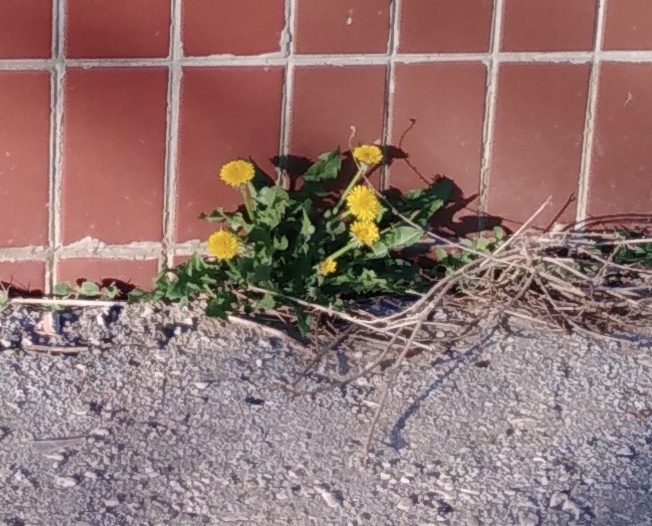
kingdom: Plantae
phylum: Tracheophyta
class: Magnoliopsida
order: Asterales
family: Asteraceae
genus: Taraxacum
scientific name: Taraxacum officinale
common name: Common dandelion
